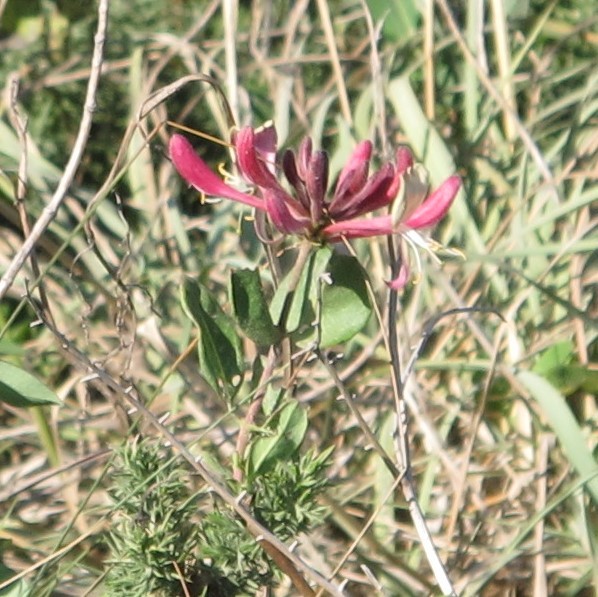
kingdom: Plantae
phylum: Tracheophyta
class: Magnoliopsida
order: Dipsacales
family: Caprifoliaceae
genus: Lonicera
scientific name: Lonicera periclymenum
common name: European honeysuckle
